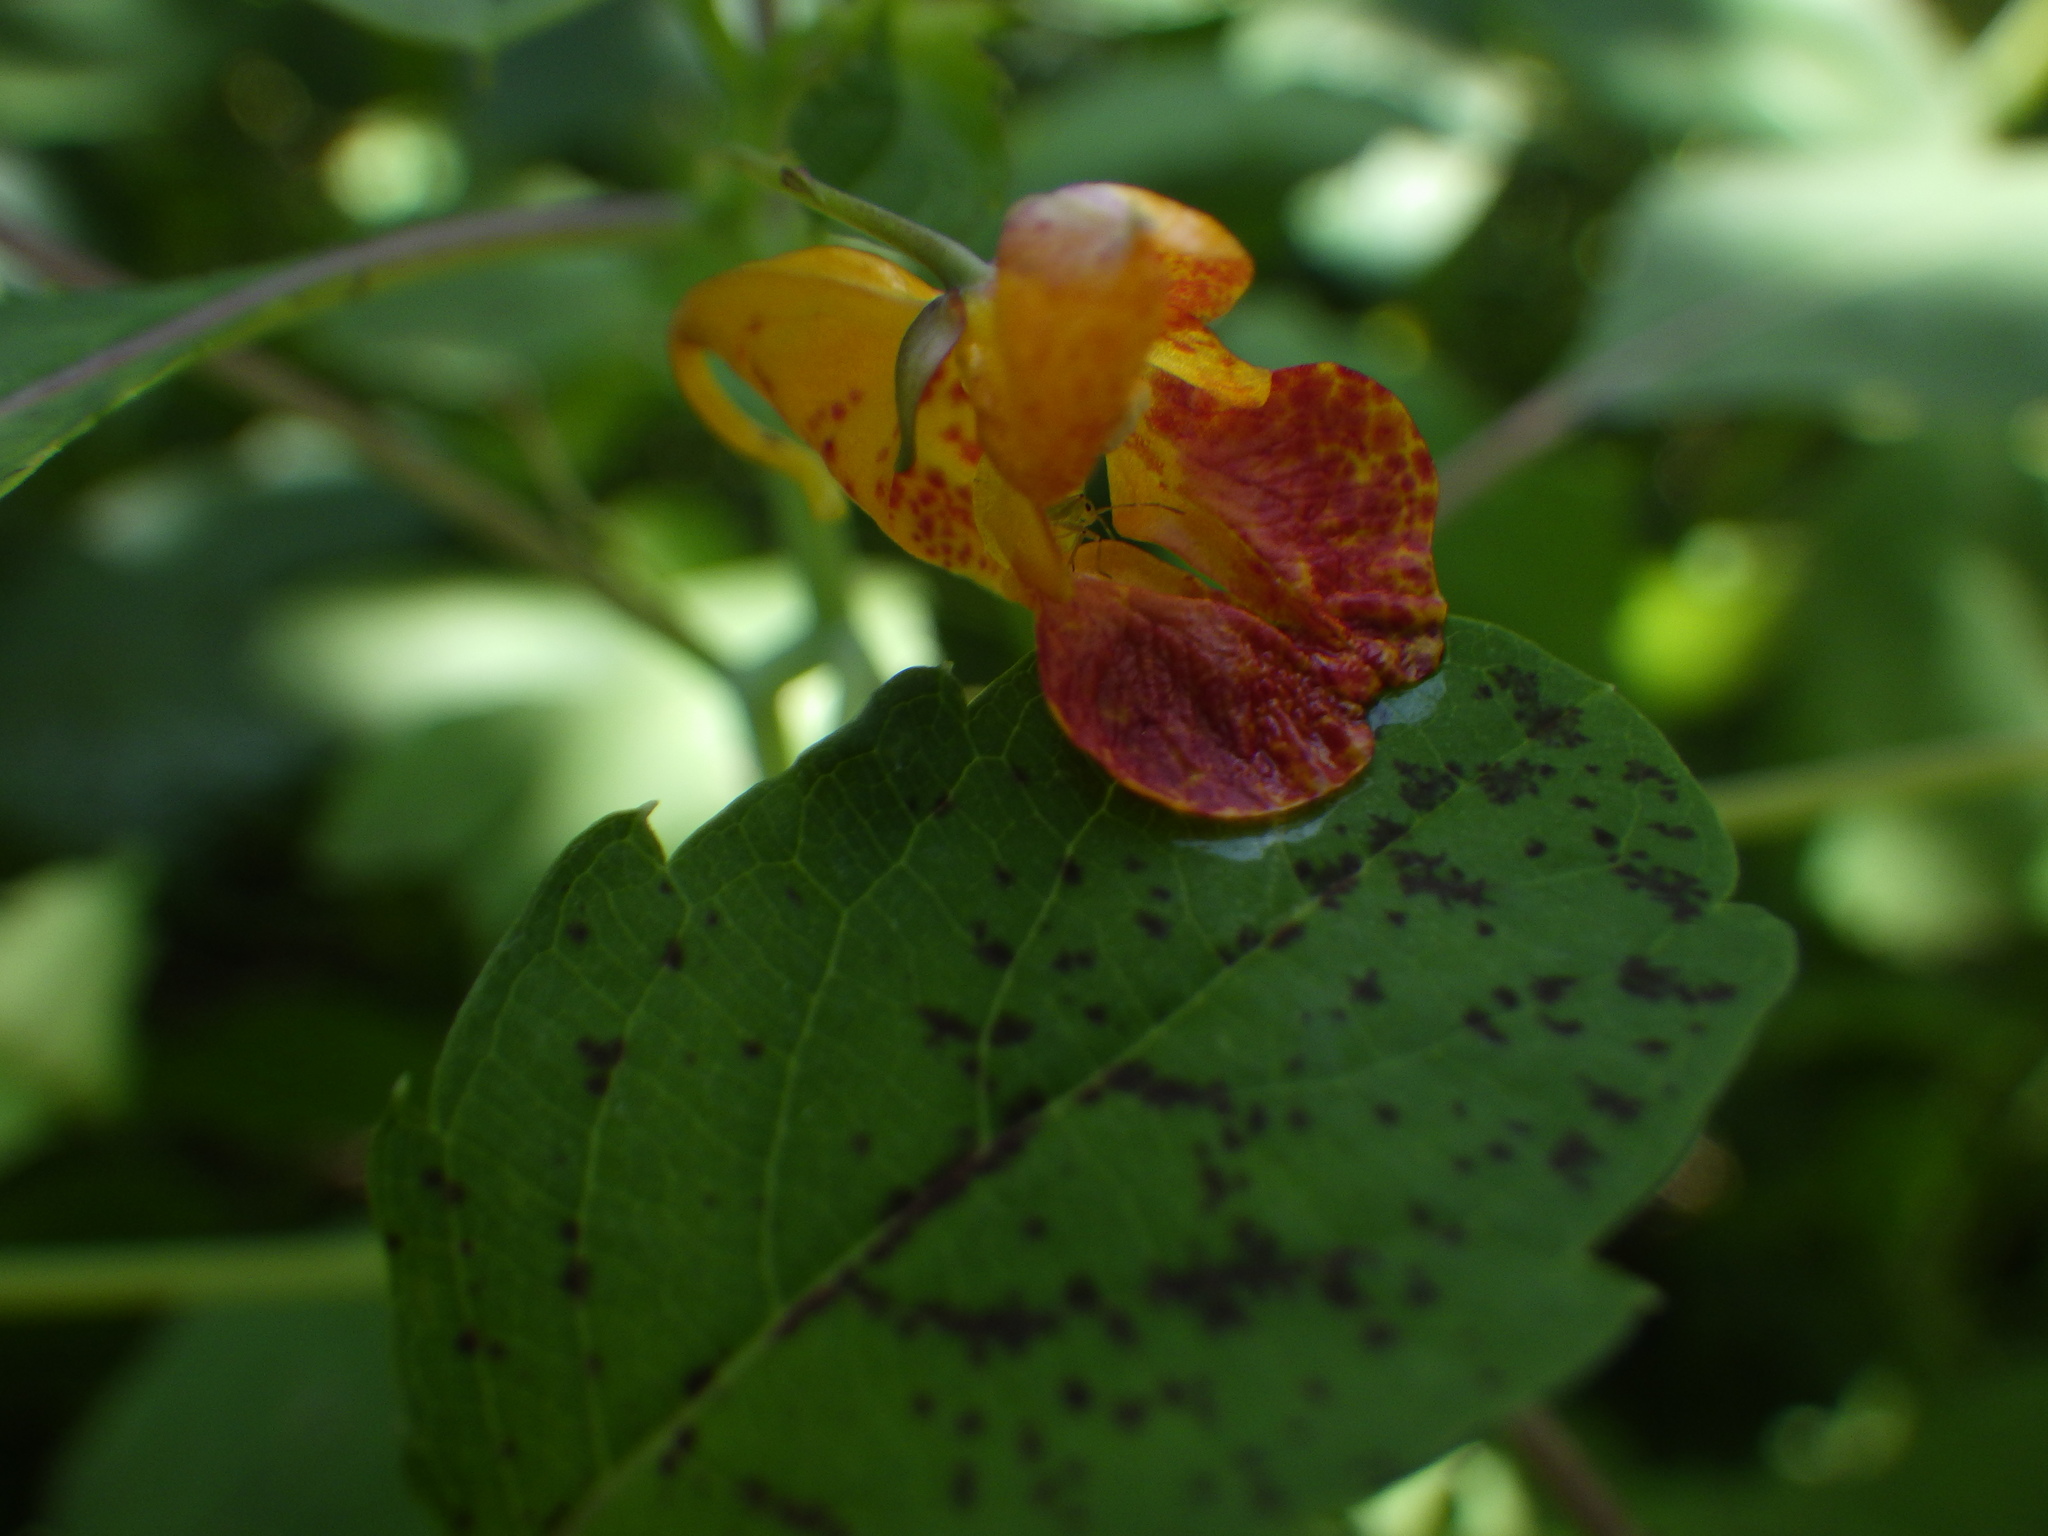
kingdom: Plantae
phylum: Tracheophyta
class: Magnoliopsida
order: Ericales
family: Balsaminaceae
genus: Impatiens
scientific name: Impatiens capensis
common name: Orange balsam
